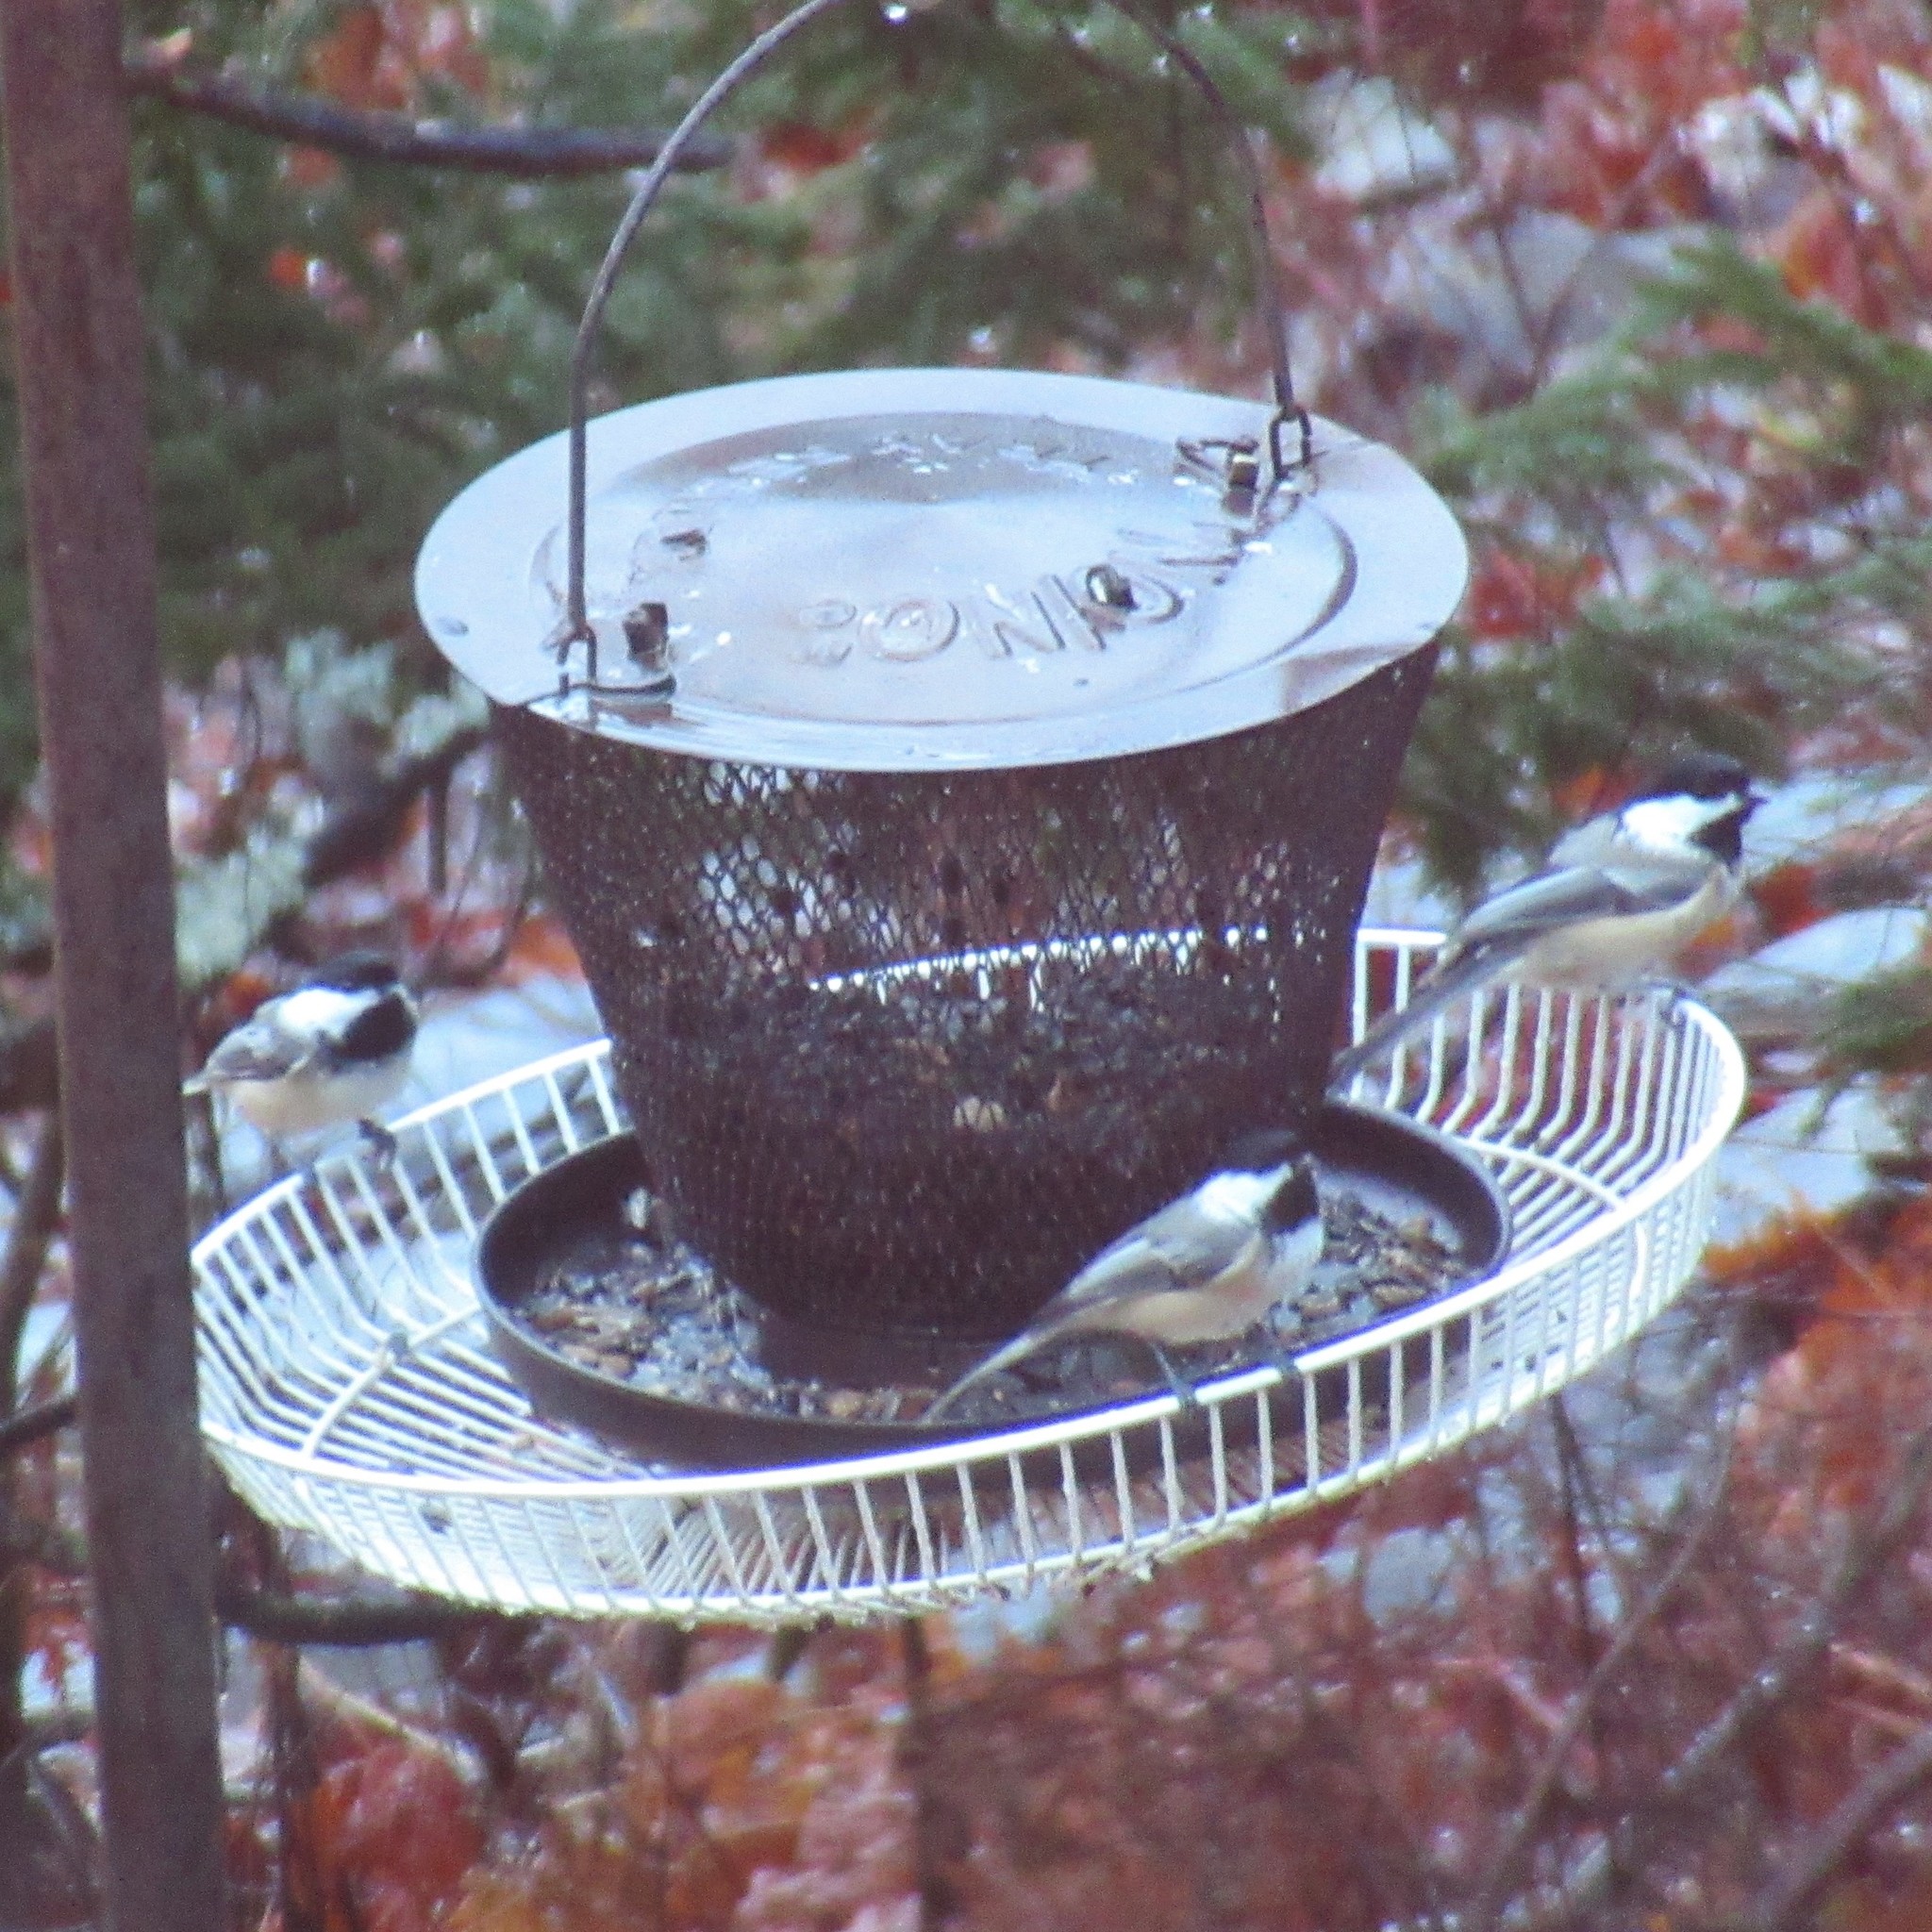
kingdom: Animalia
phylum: Chordata
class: Aves
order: Passeriformes
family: Paridae
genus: Poecile
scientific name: Poecile atricapillus
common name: Black-capped chickadee
